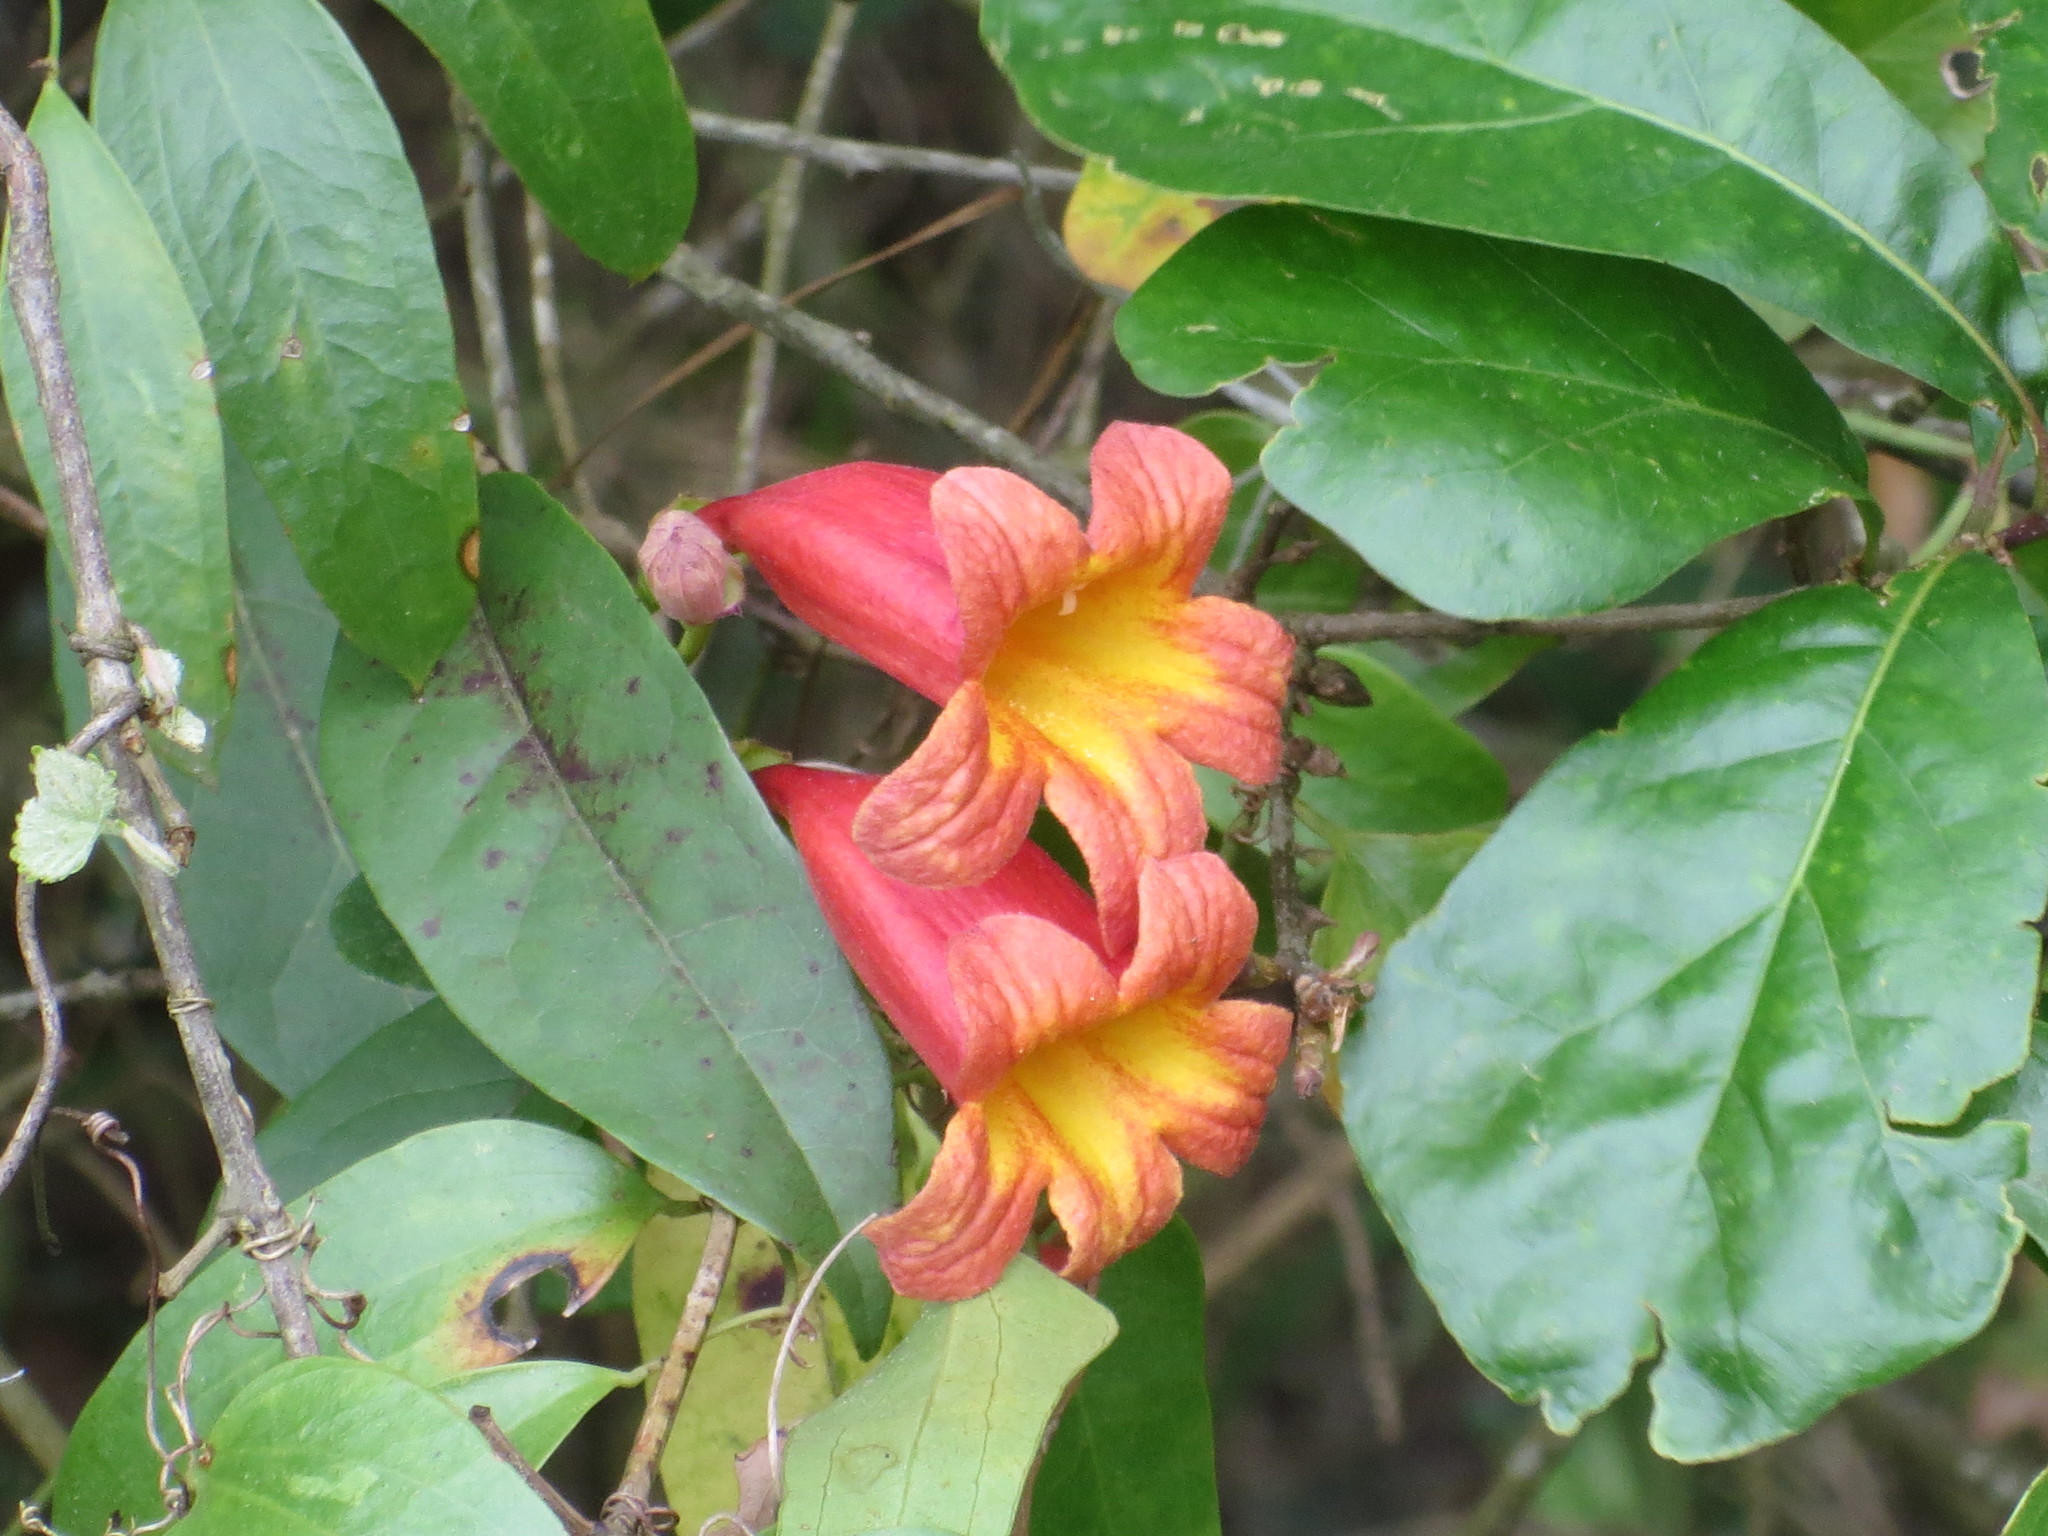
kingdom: Plantae
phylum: Tracheophyta
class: Magnoliopsida
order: Lamiales
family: Bignoniaceae
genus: Bignonia
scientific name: Bignonia capreolata
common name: Crossvine
